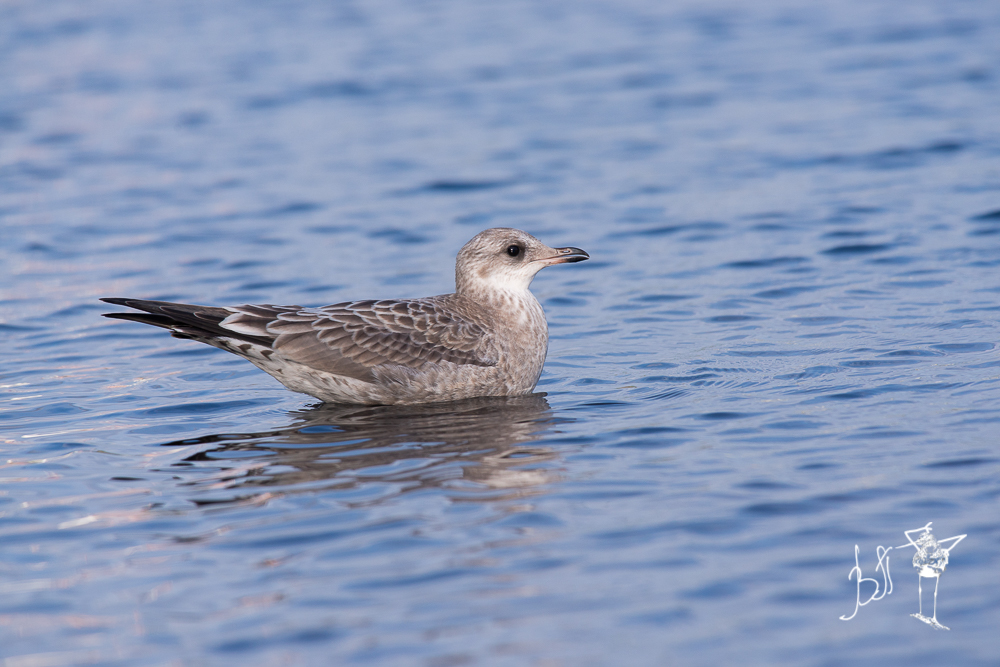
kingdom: Animalia
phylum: Chordata
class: Aves
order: Charadriiformes
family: Laridae
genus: Larus
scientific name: Larus canus
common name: Mew gull
